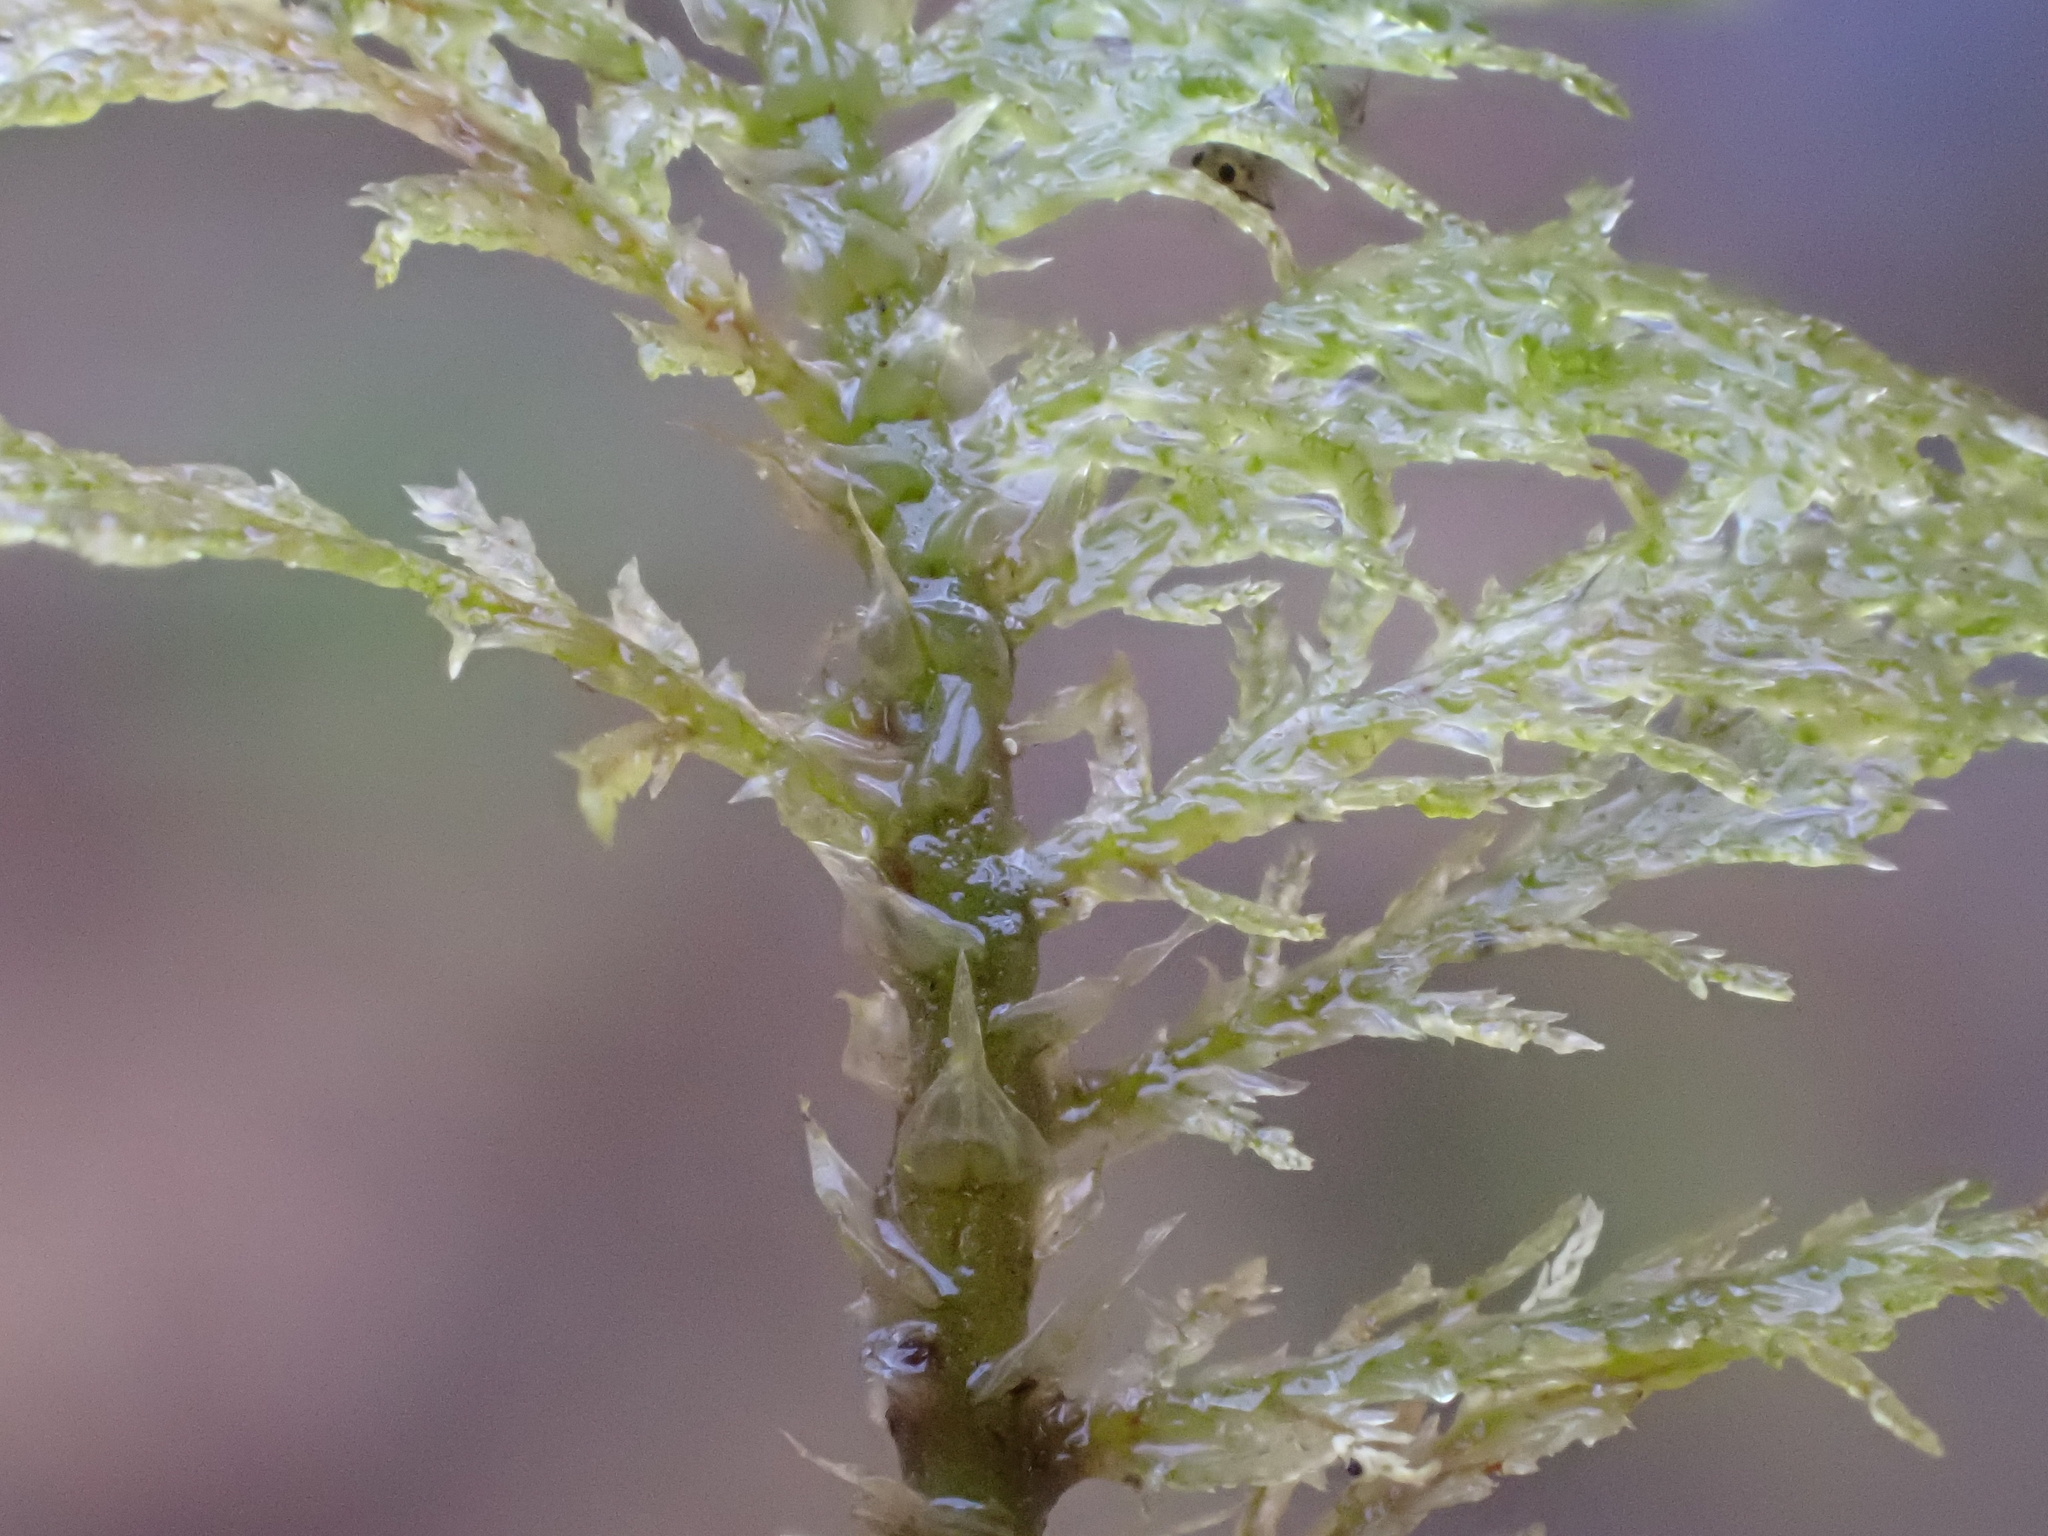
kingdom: Plantae
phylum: Bryophyta
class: Bryopsida
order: Hypnales
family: Thuidiaceae
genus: Thuidium
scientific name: Thuidium tamariscinum
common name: Common tamarisk-moss
